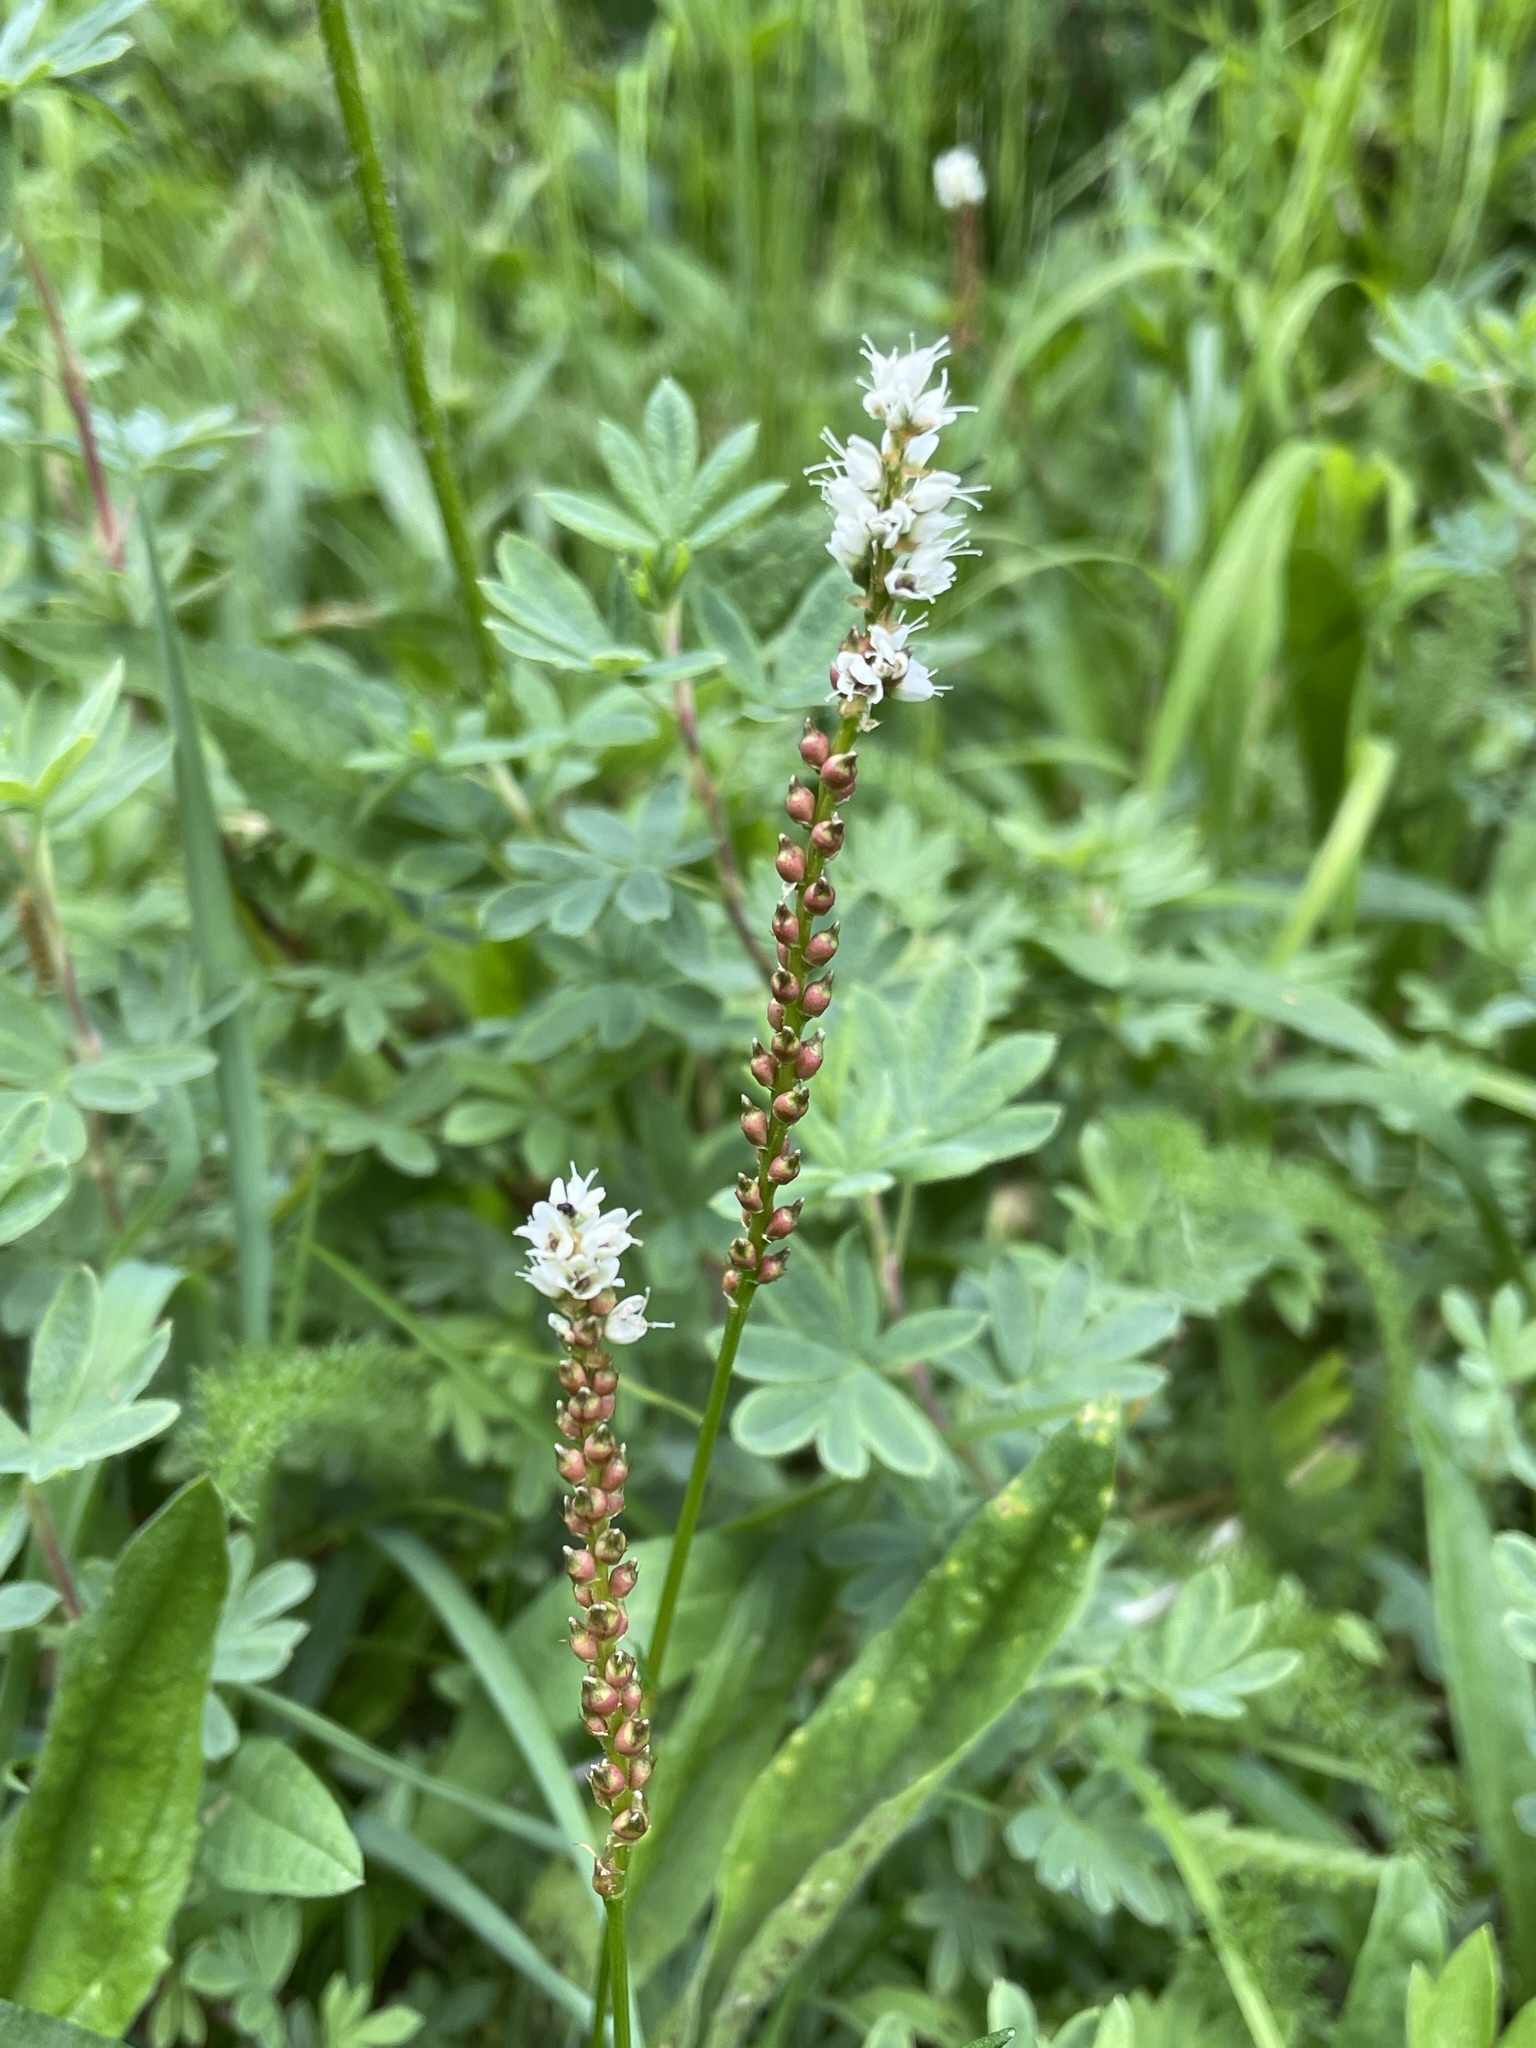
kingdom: Plantae
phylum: Tracheophyta
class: Magnoliopsida
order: Caryophyllales
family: Polygonaceae
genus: Bistorta
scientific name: Bistorta vivipara
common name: Alpine bistort
